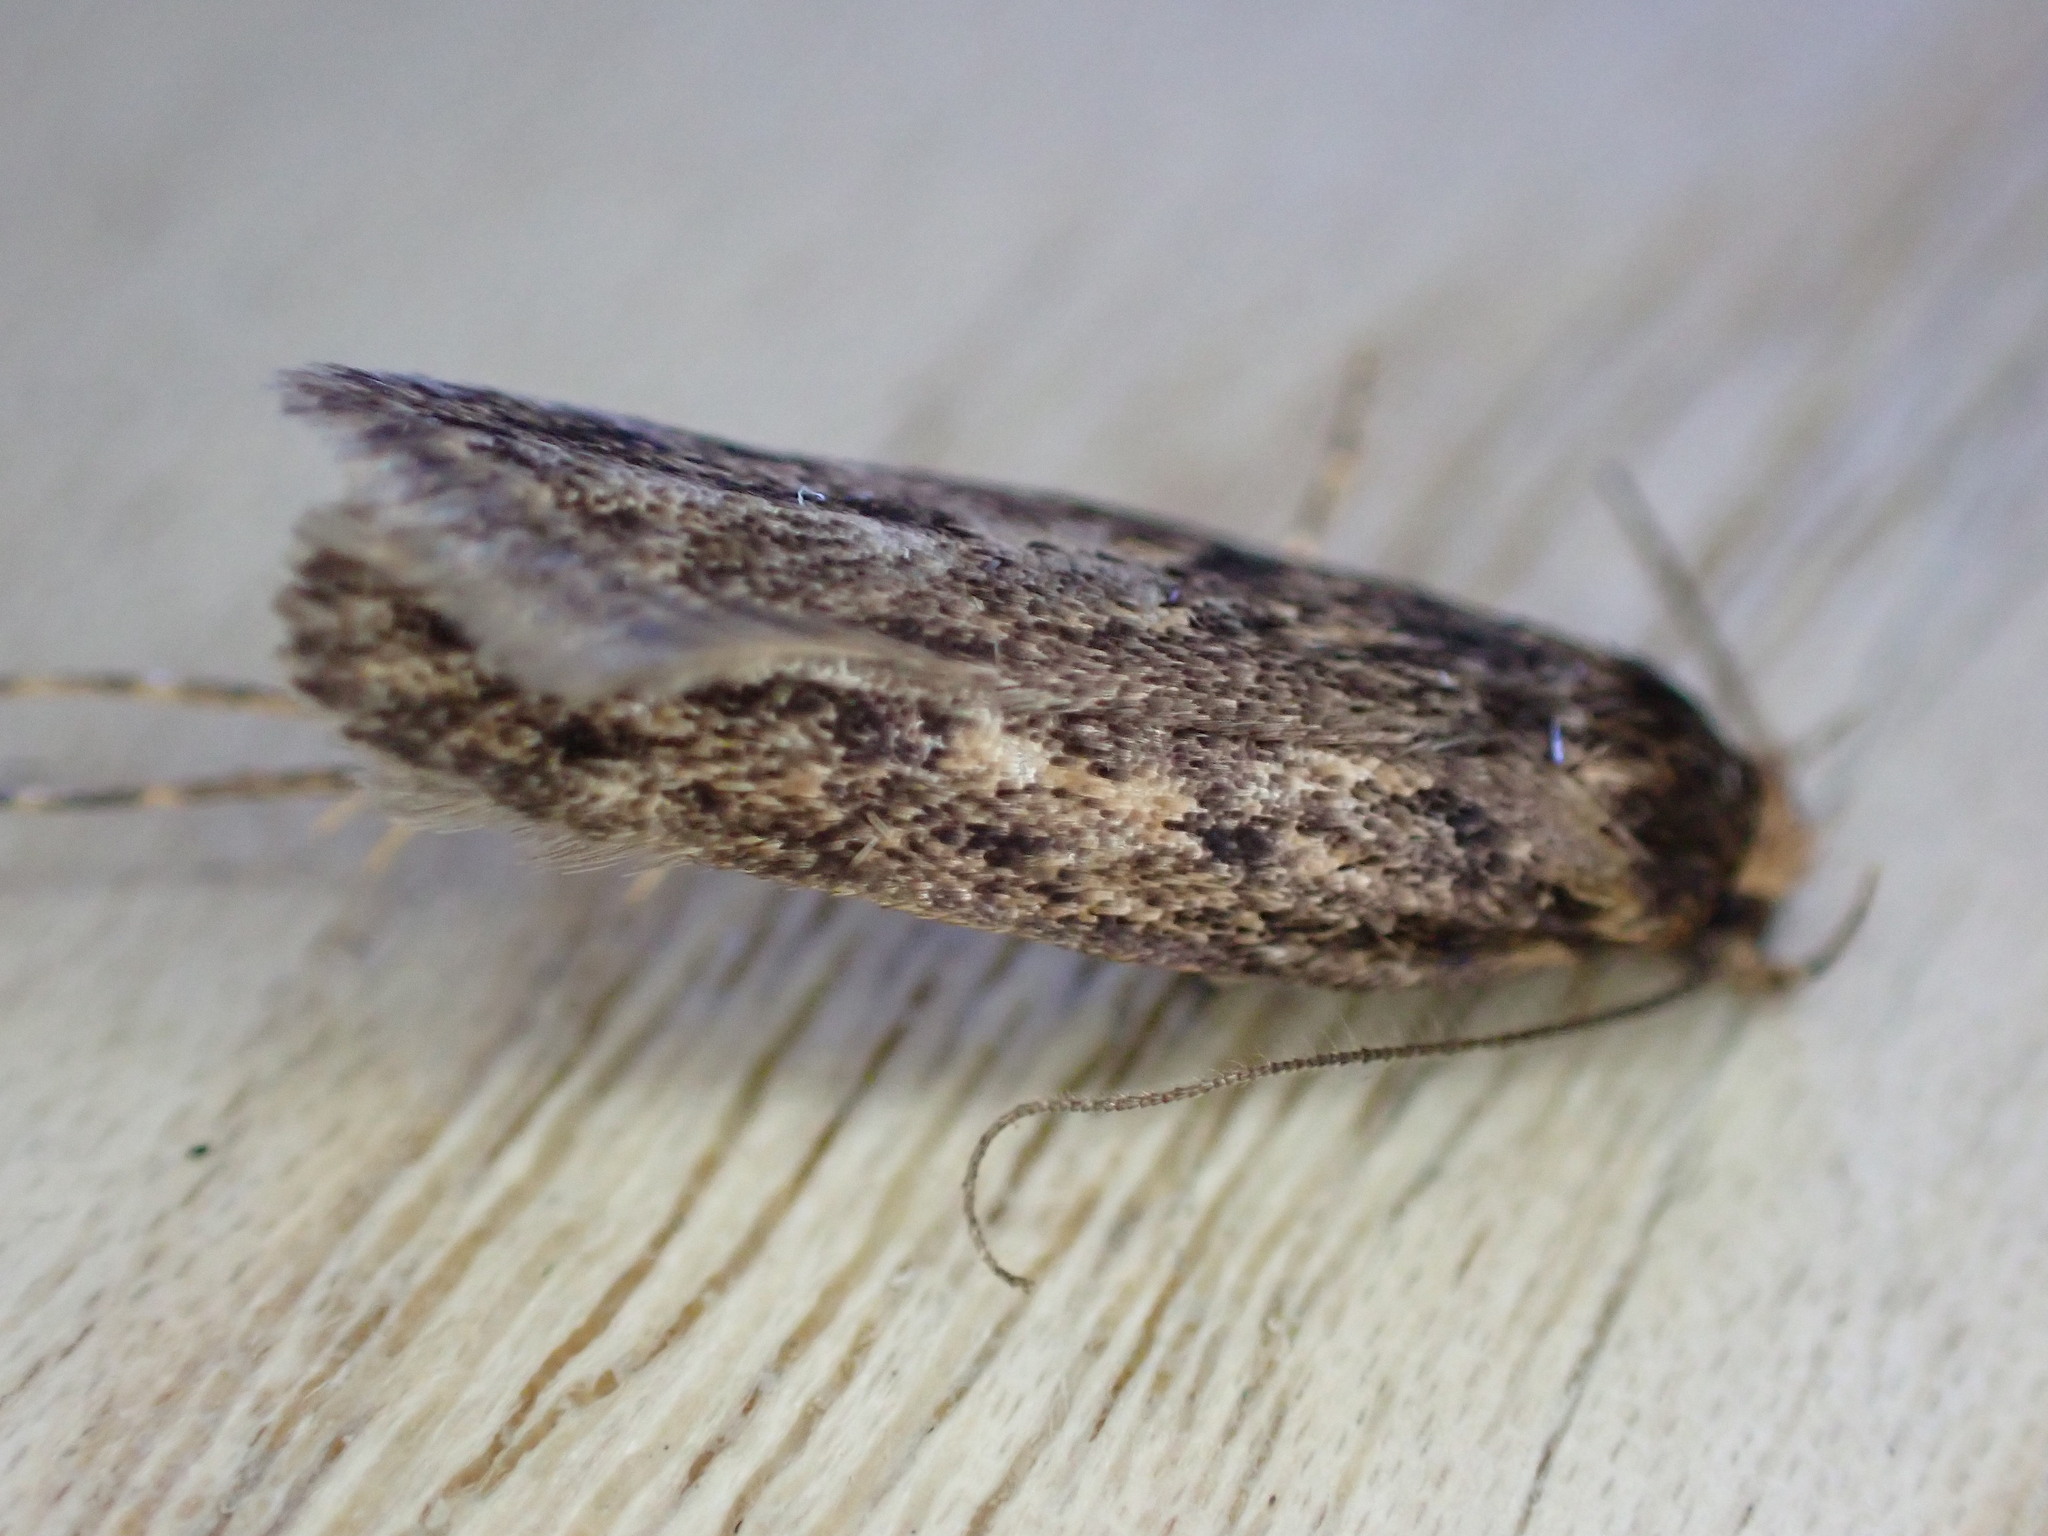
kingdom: Animalia
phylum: Arthropoda
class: Insecta
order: Lepidoptera
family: Oecophoridae
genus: Hofmannophila
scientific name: Hofmannophila pseudospretella
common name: Brown house moth
